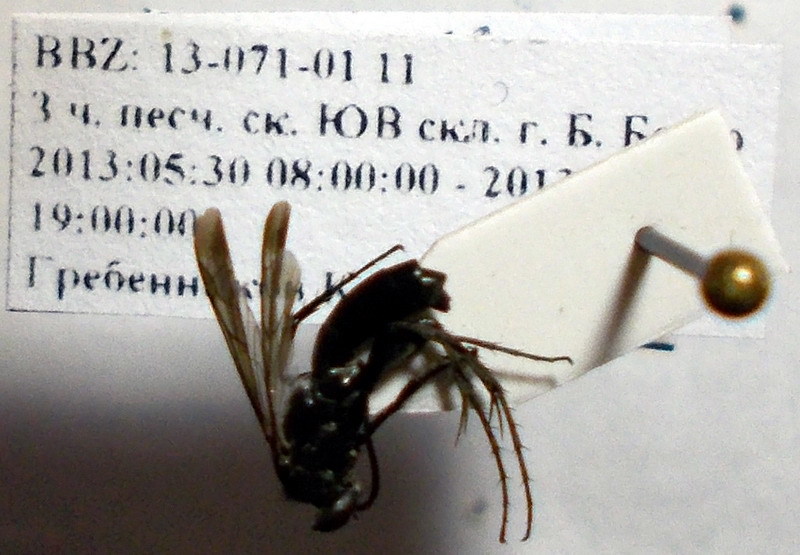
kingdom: Animalia
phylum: Arthropoda
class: Insecta
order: Hymenoptera
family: Pompilidae
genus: Telostegus
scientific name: Telostegus inermis
